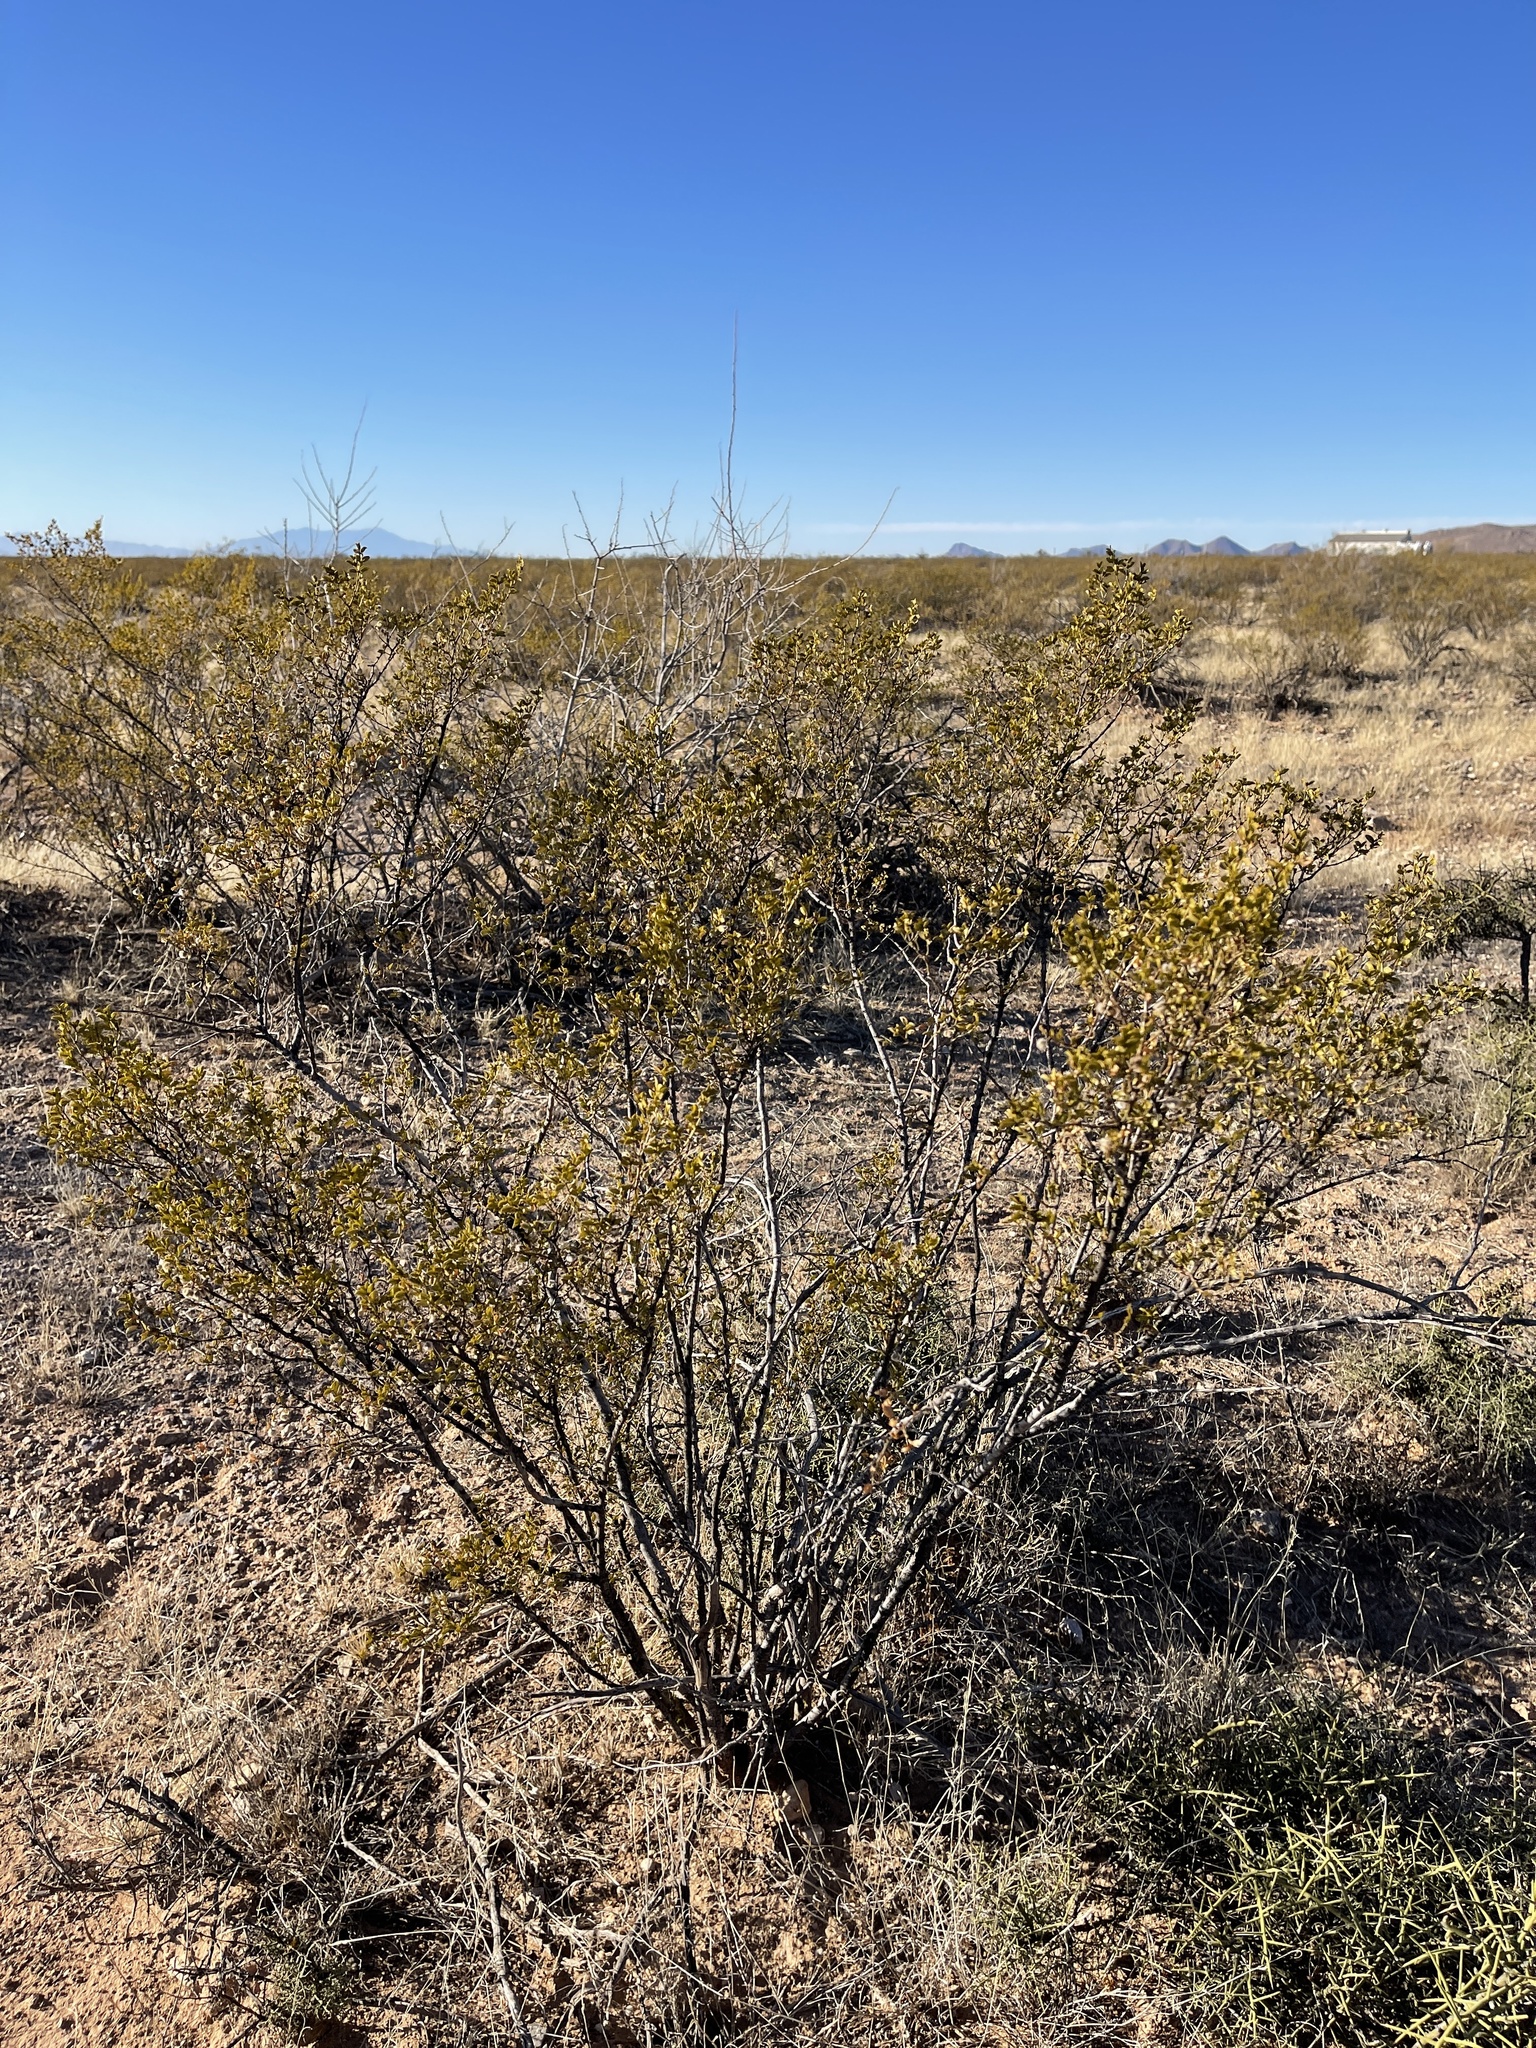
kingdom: Plantae
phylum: Tracheophyta
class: Magnoliopsida
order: Zygophyllales
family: Zygophyllaceae
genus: Larrea
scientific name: Larrea tridentata
